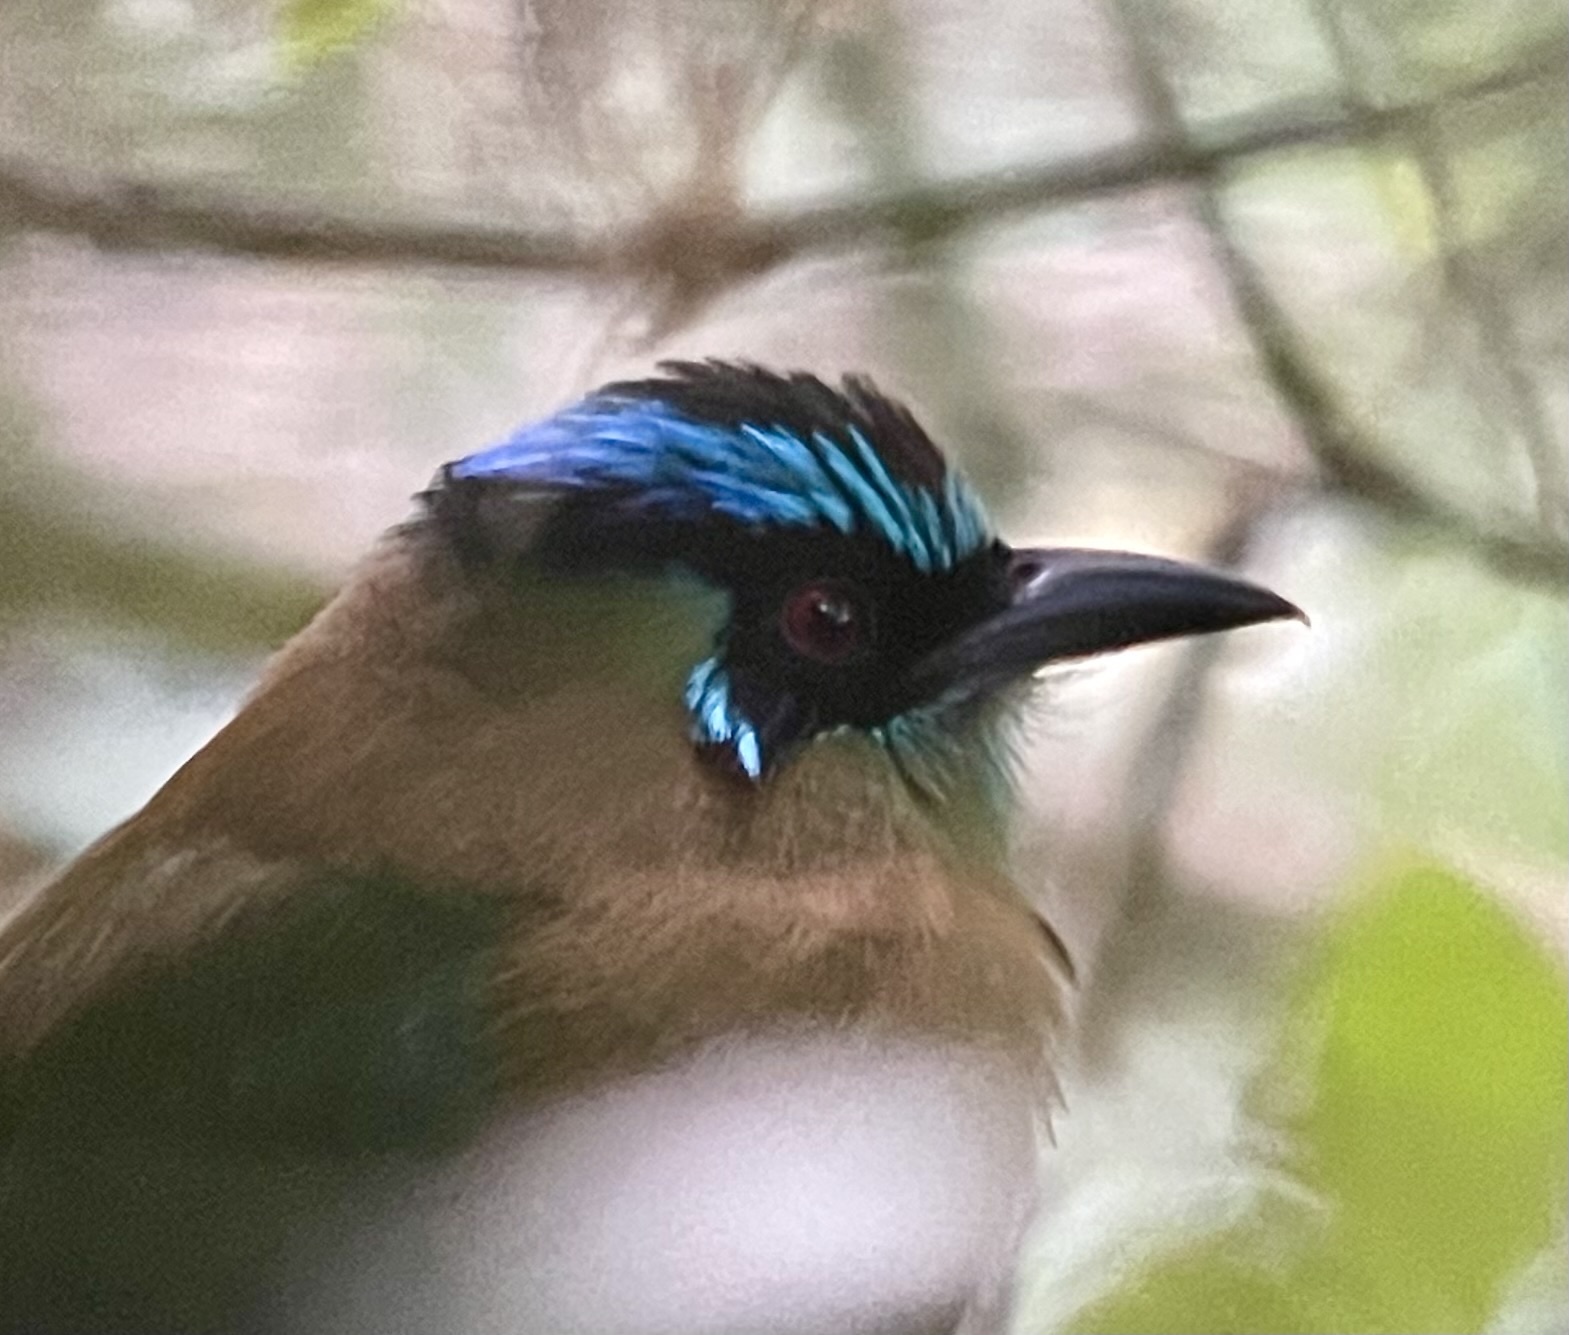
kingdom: Animalia
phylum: Chordata
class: Aves
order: Coraciiformes
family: Momotidae
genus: Momotus
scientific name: Momotus lessonii
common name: Lesson's motmot
